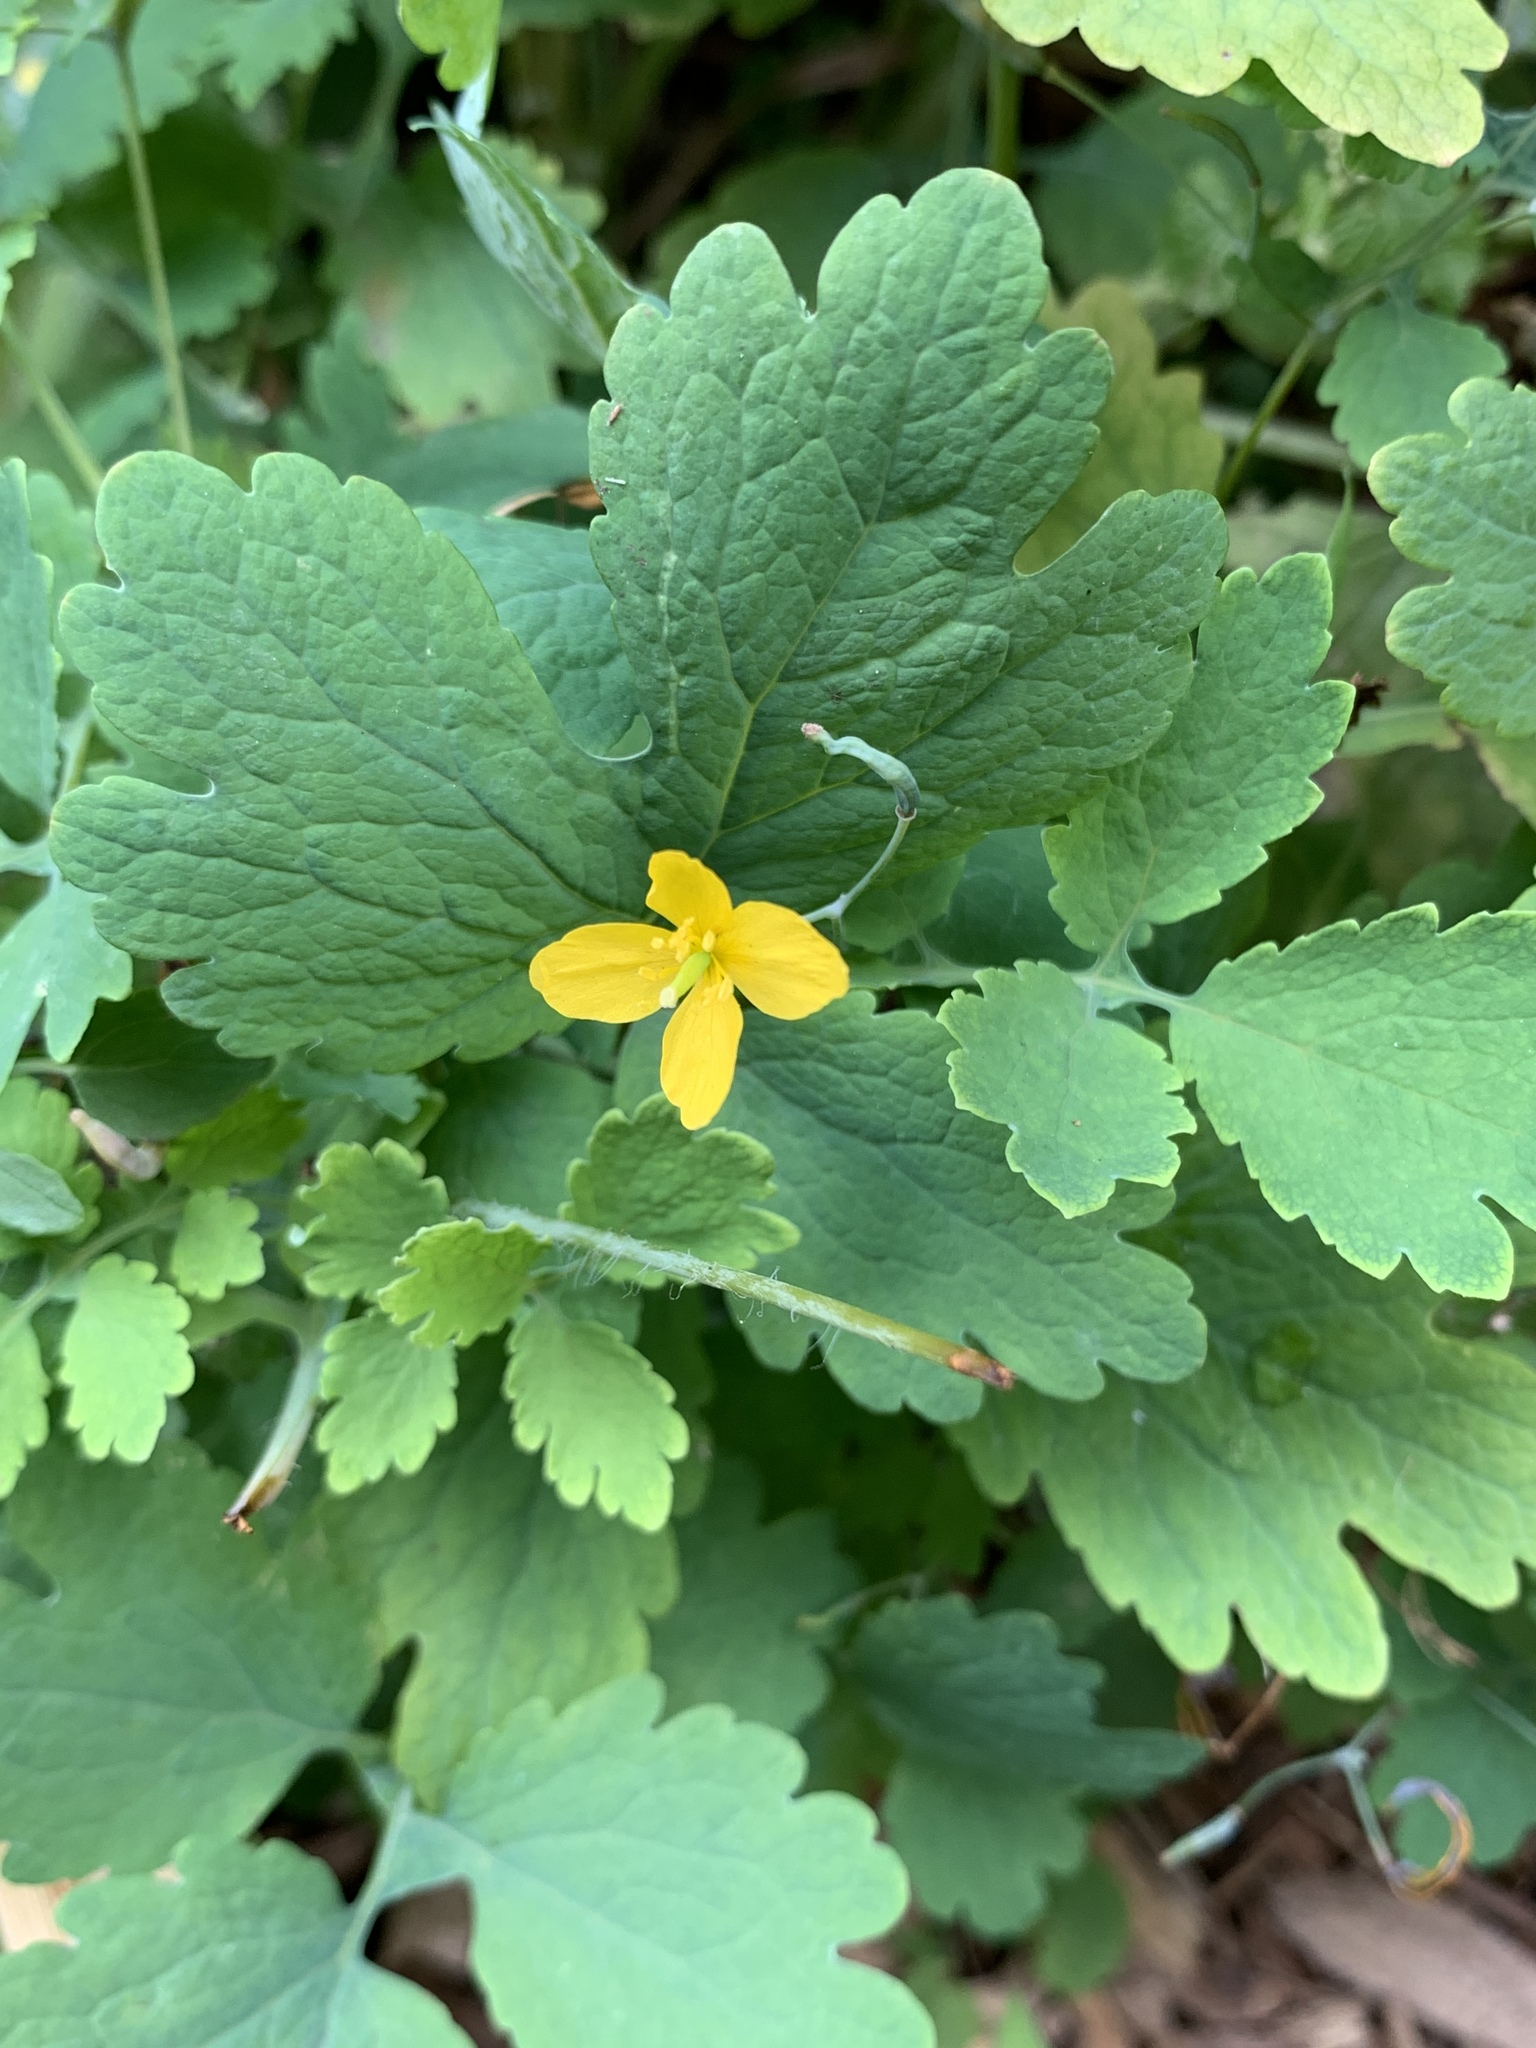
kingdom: Plantae
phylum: Tracheophyta
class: Magnoliopsida
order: Ranunculales
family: Papaveraceae
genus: Chelidonium
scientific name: Chelidonium majus
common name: Greater celandine
